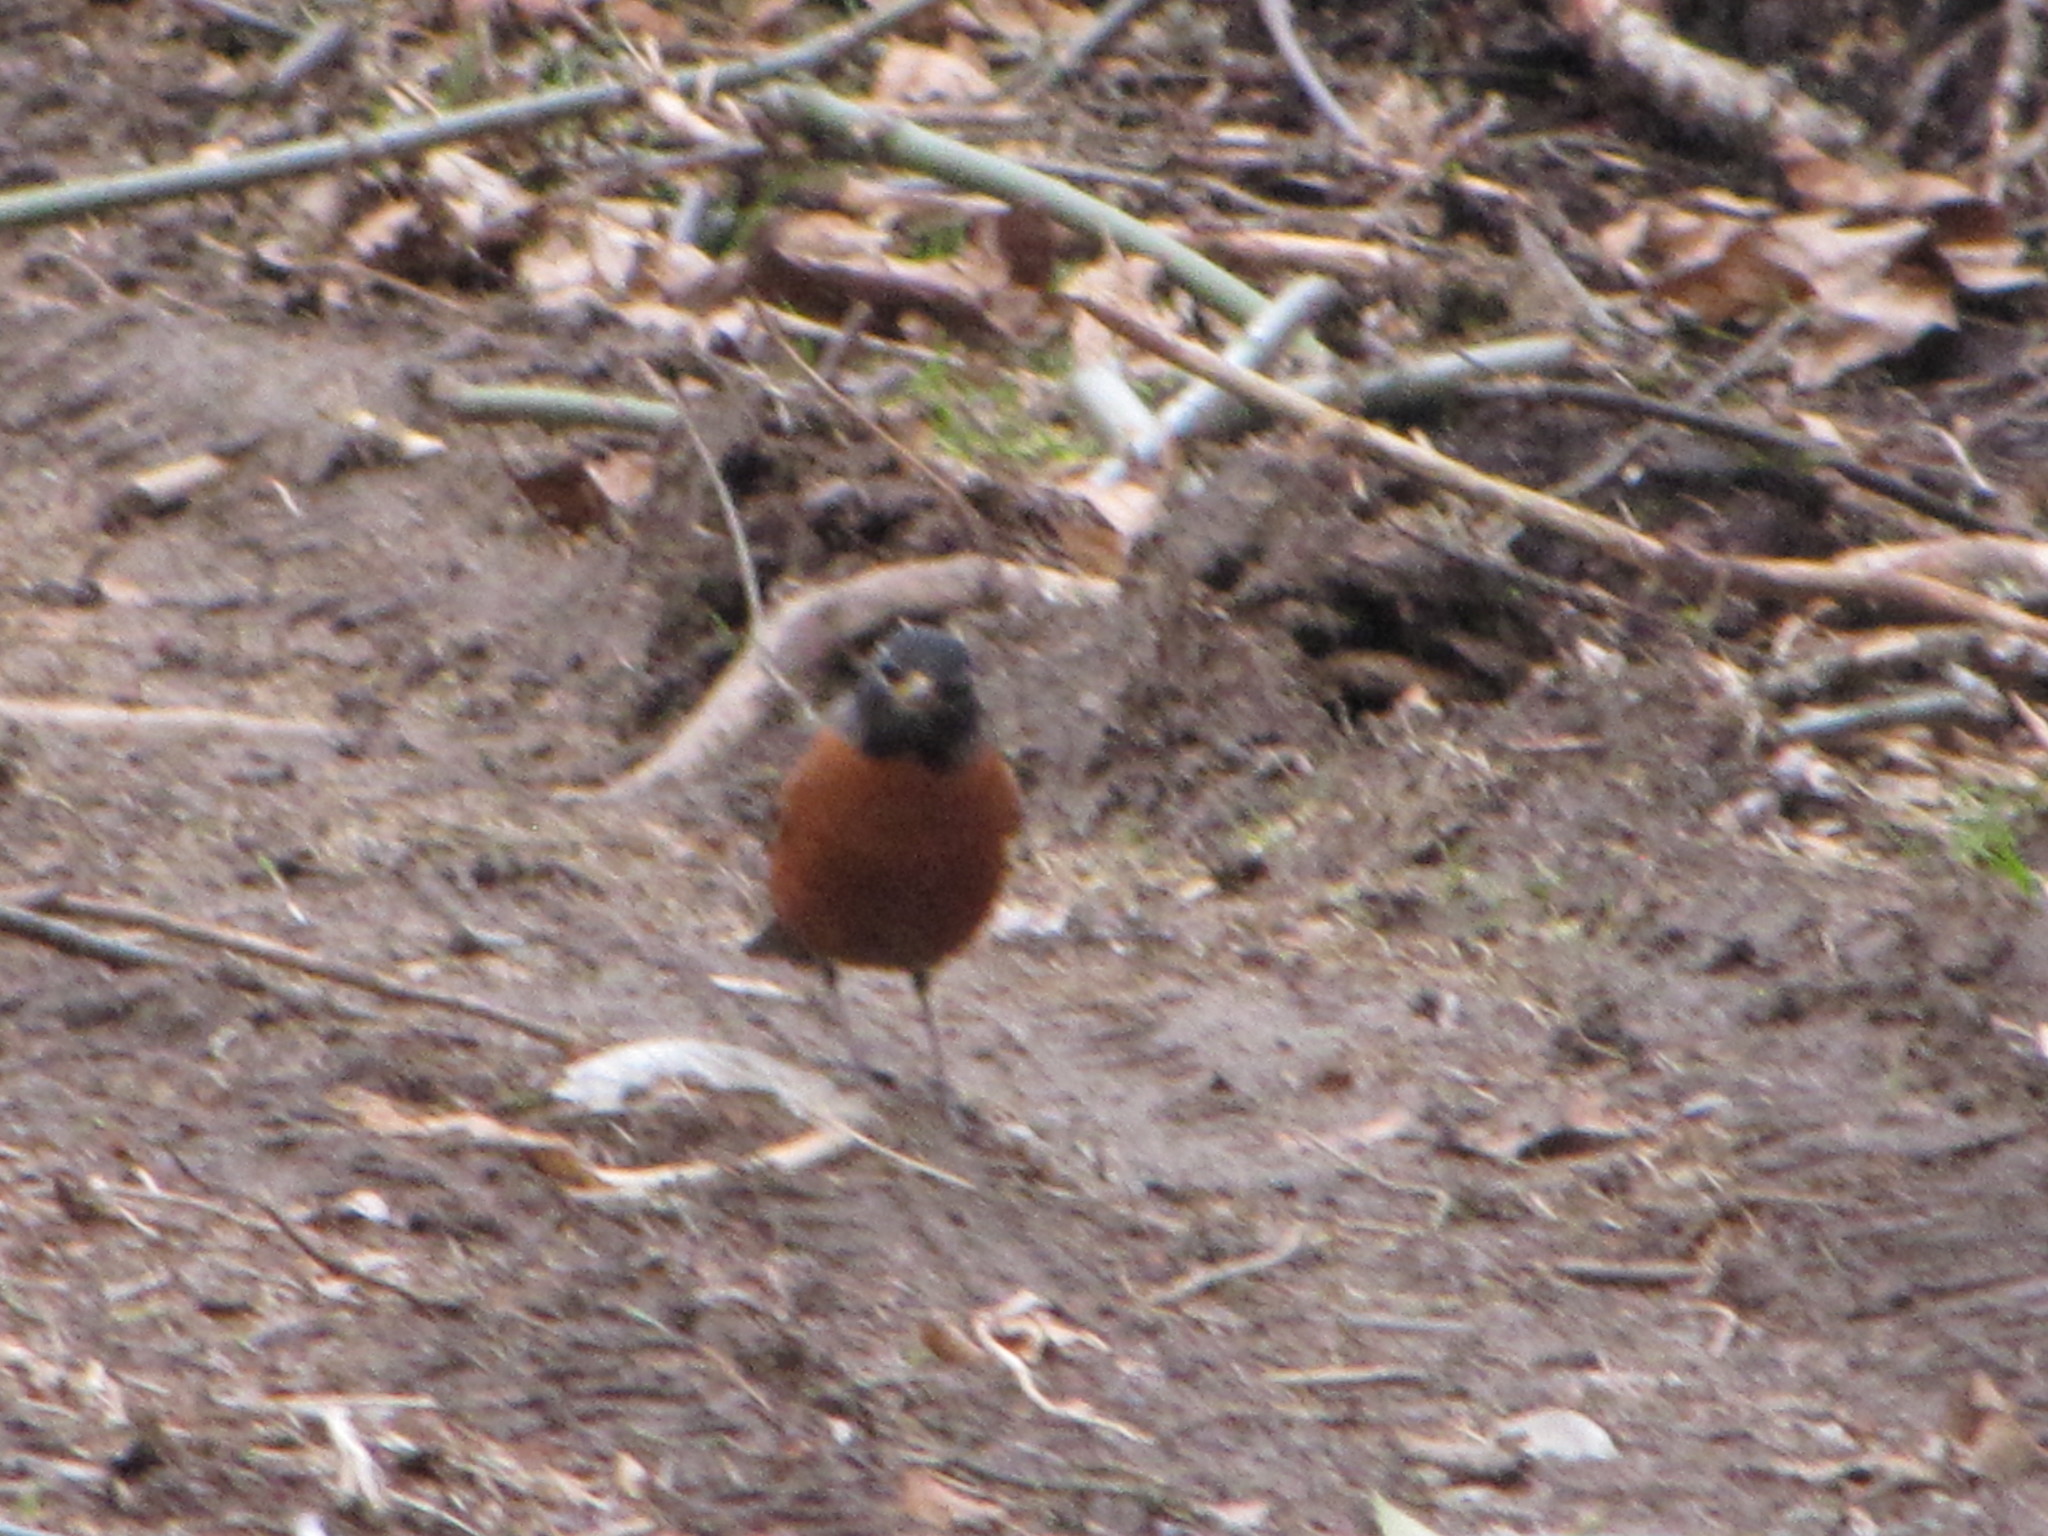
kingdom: Animalia
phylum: Chordata
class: Aves
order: Passeriformes
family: Turdidae
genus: Turdus
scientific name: Turdus migratorius
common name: American robin
